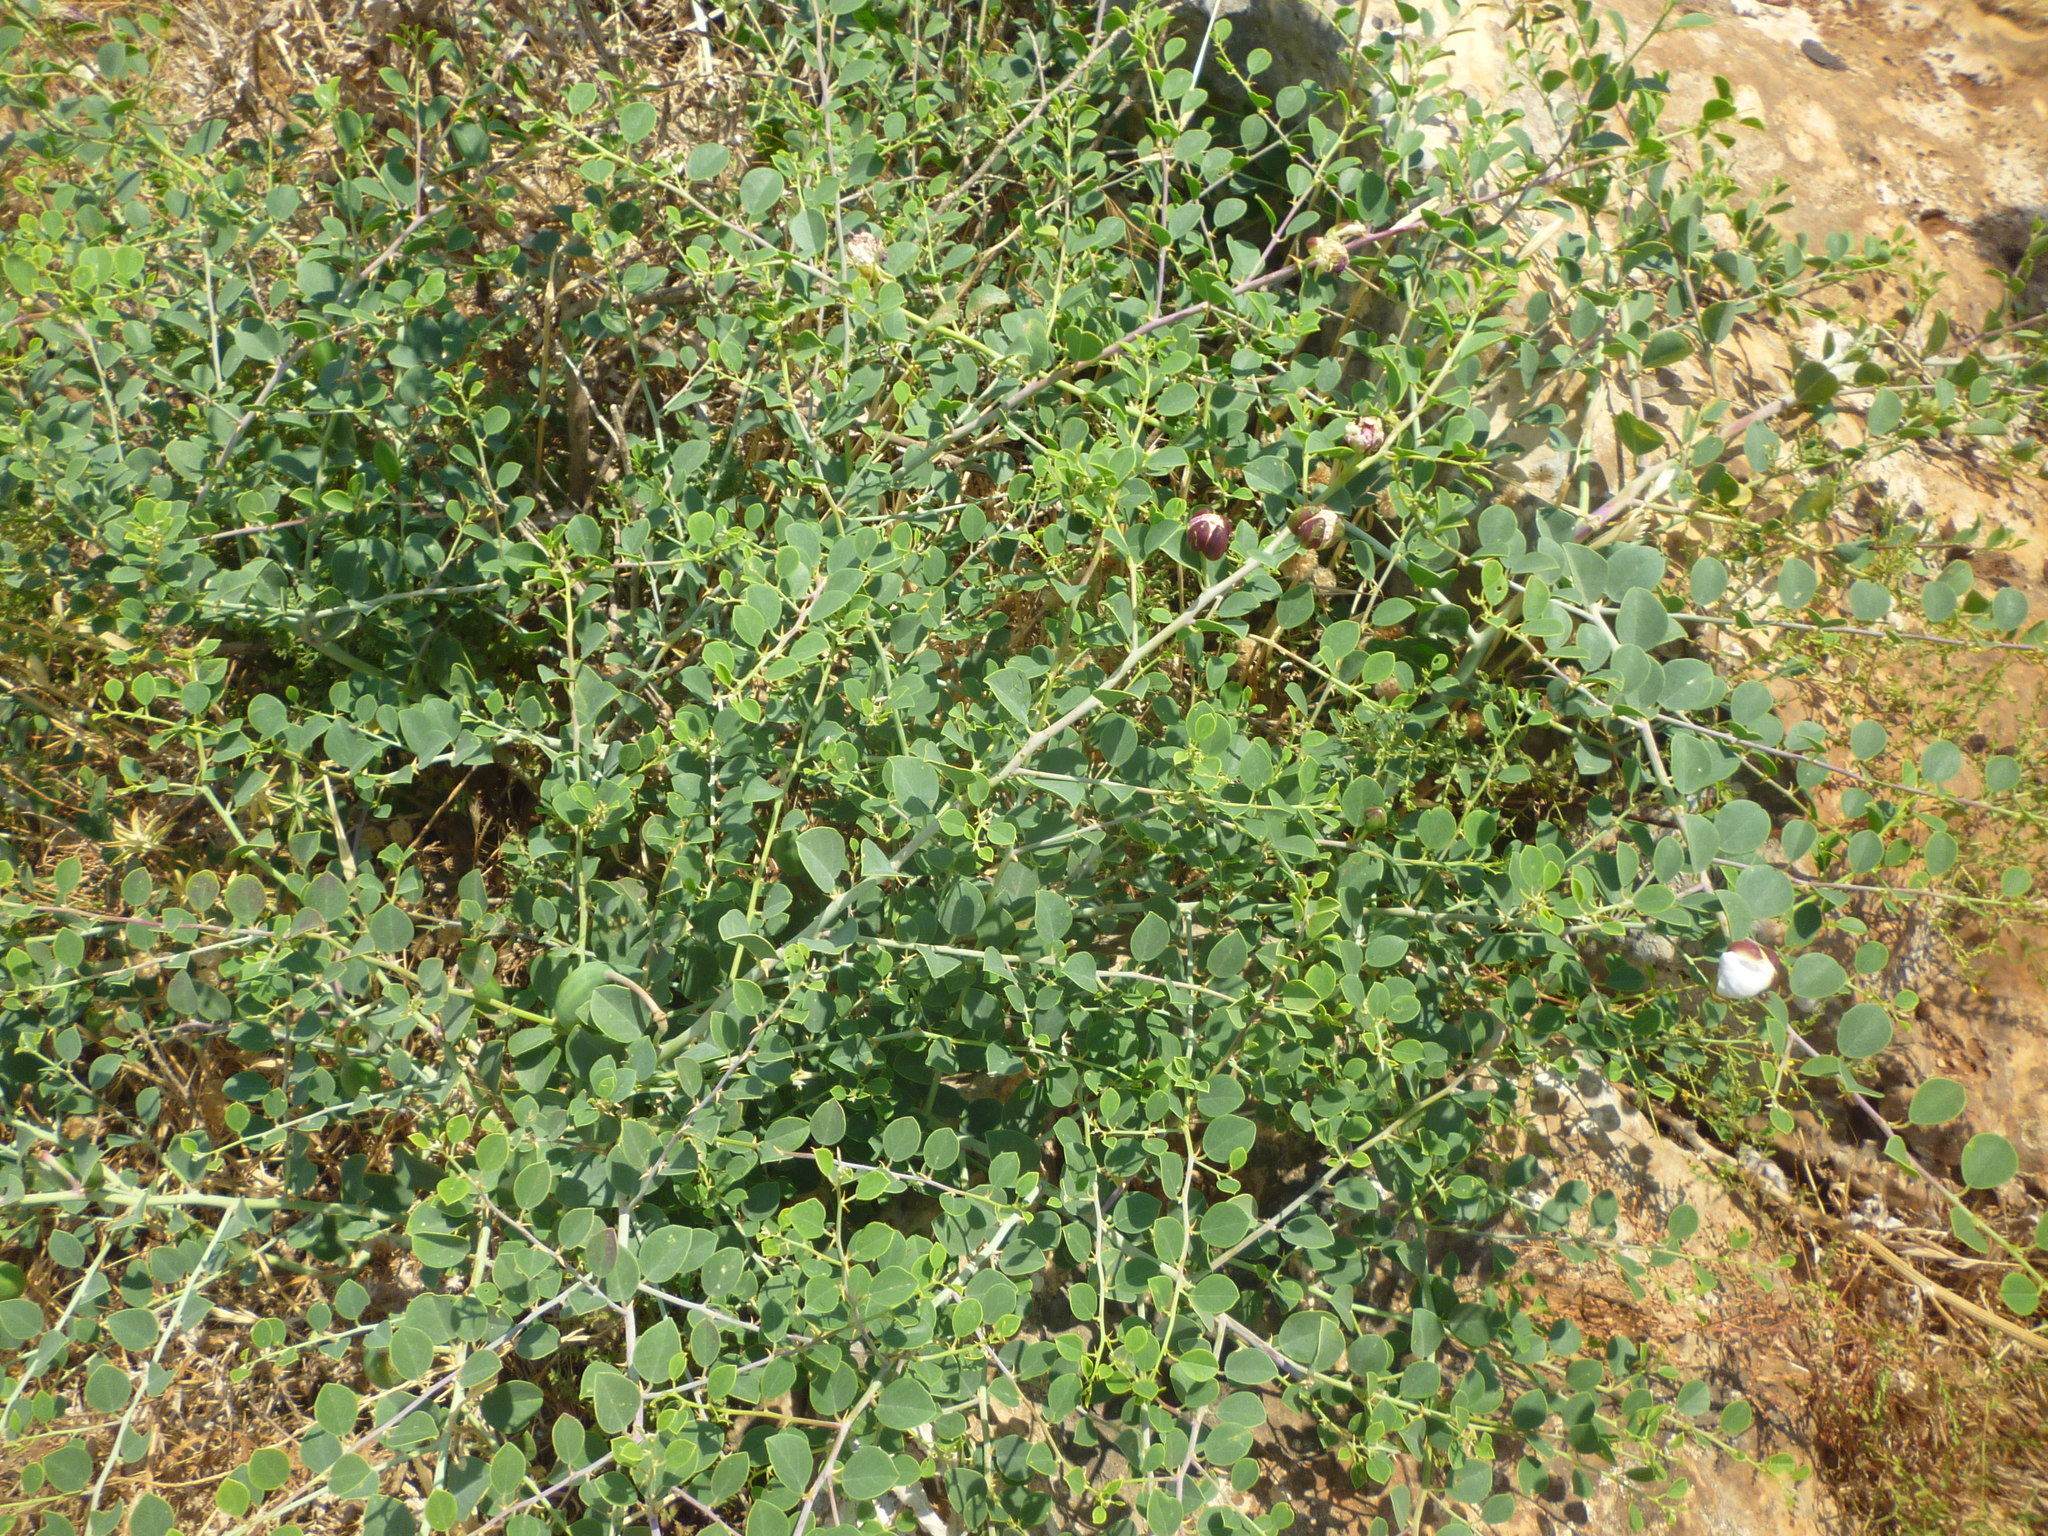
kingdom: Plantae
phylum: Tracheophyta
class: Magnoliopsida
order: Brassicales
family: Capparaceae
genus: Capparis
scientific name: Capparis spinosa
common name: Caper
